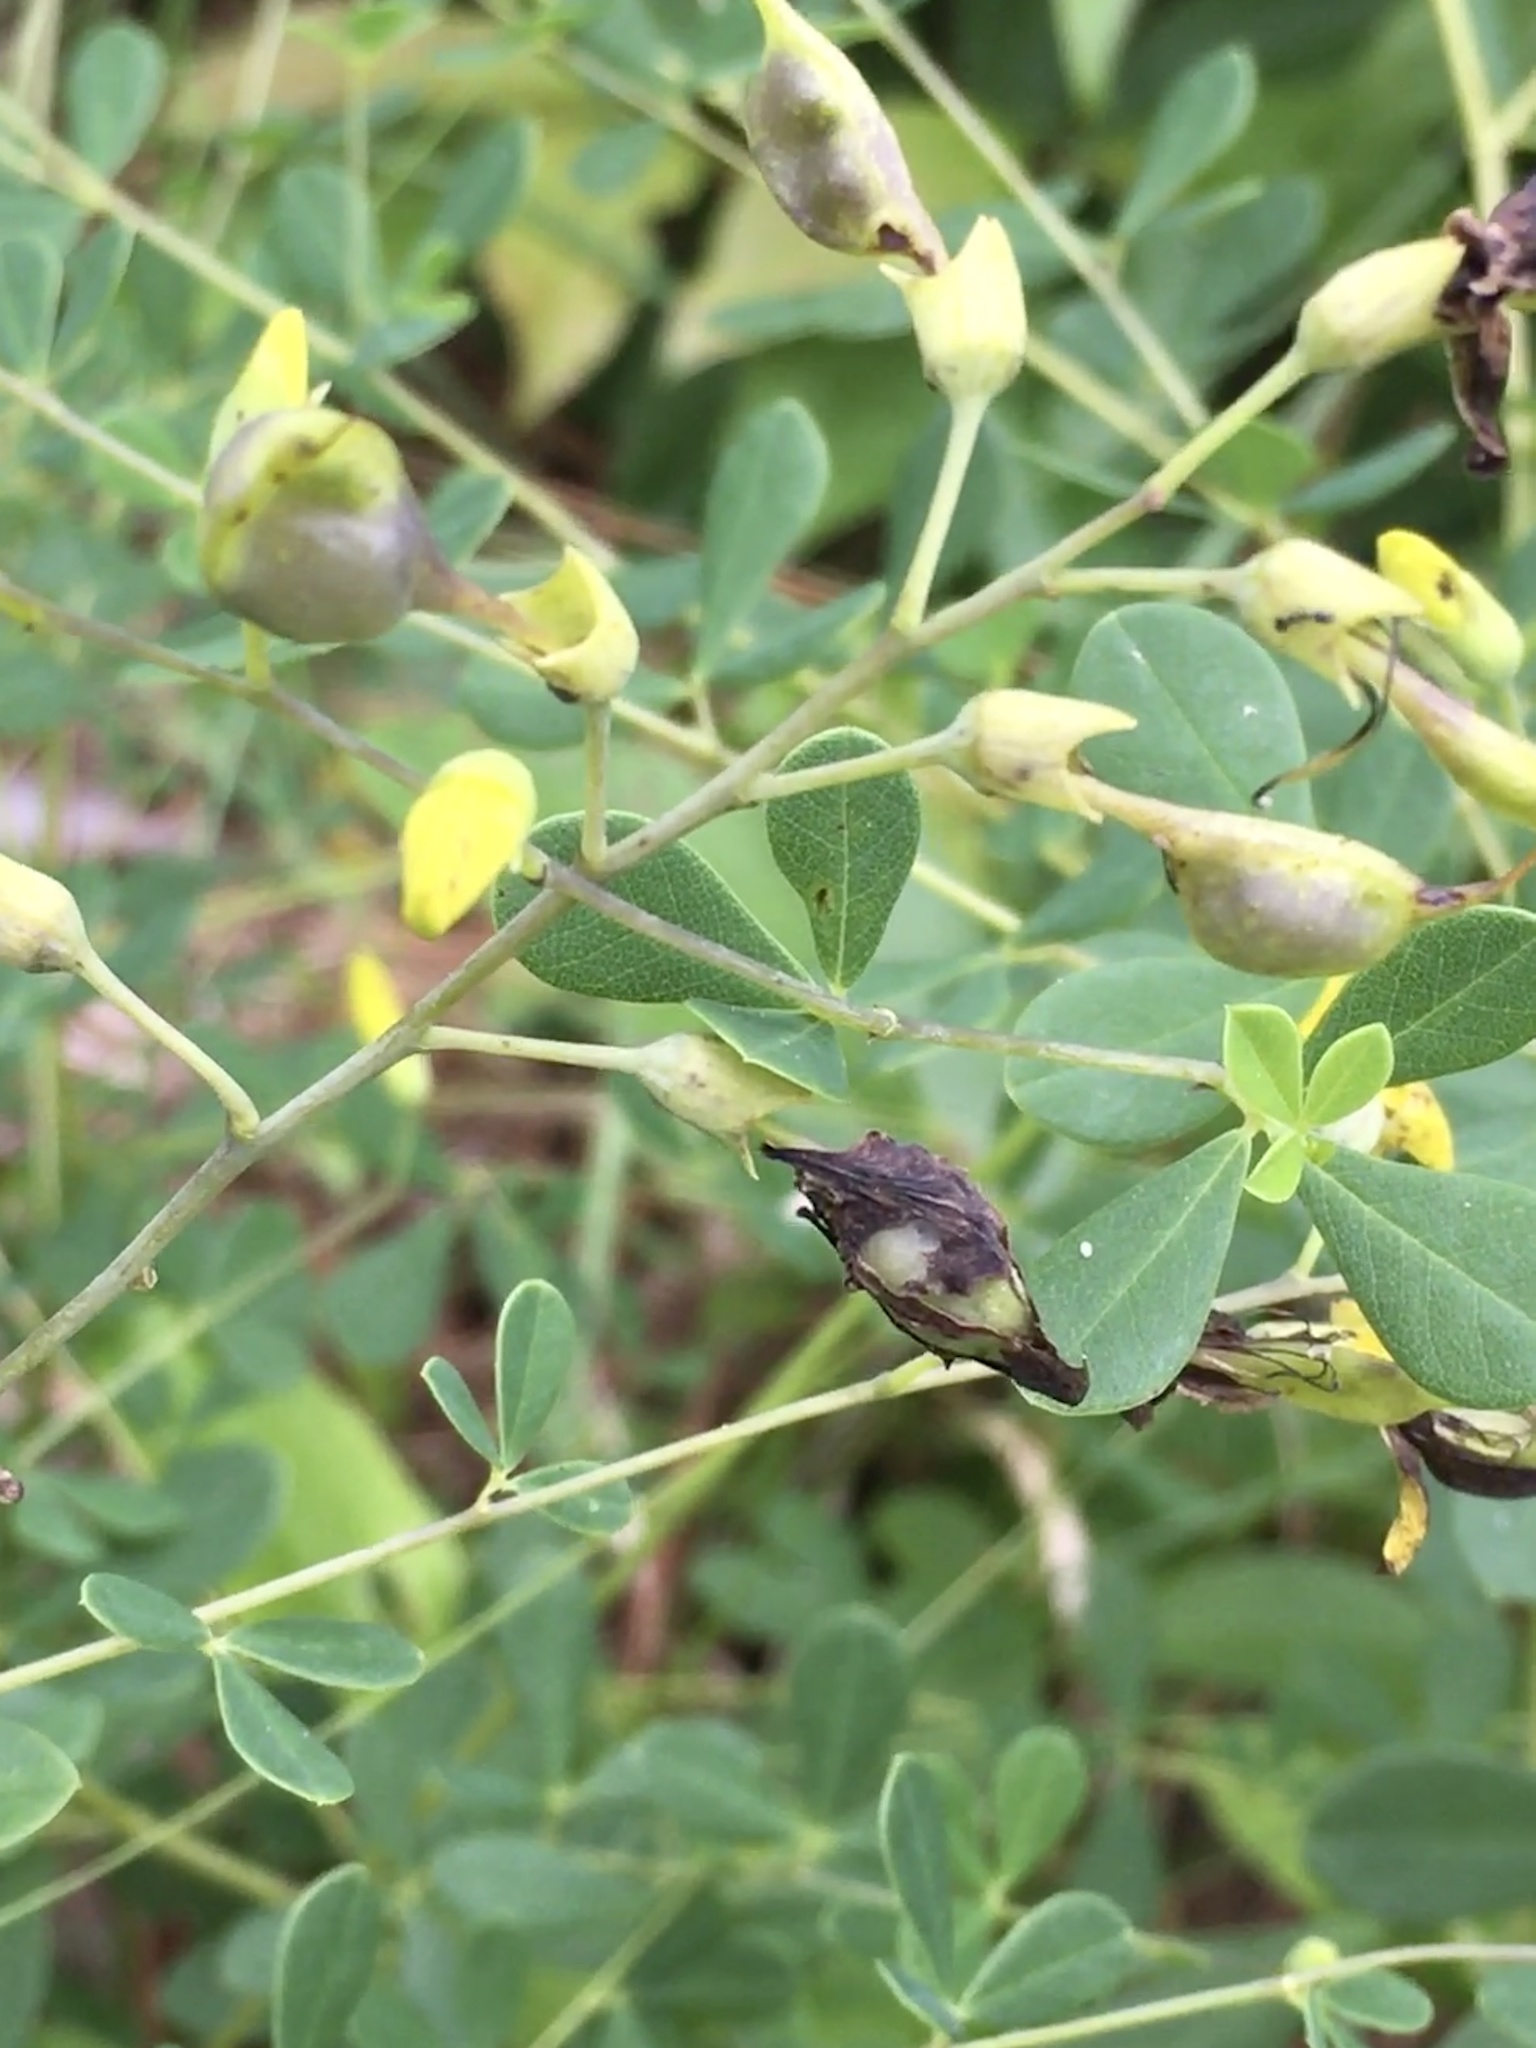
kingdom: Plantae
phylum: Tracheophyta
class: Magnoliopsida
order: Fabales
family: Fabaceae
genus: Baptisia
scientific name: Baptisia tinctoria
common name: Wild indigo
